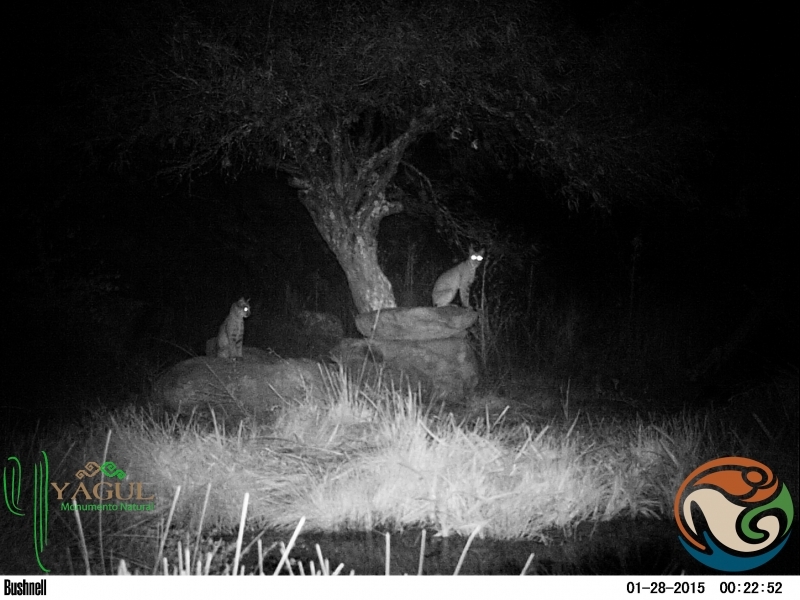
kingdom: Animalia
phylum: Chordata
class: Mammalia
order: Carnivora
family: Felidae
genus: Lynx
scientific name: Lynx rufus
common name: Bobcat
